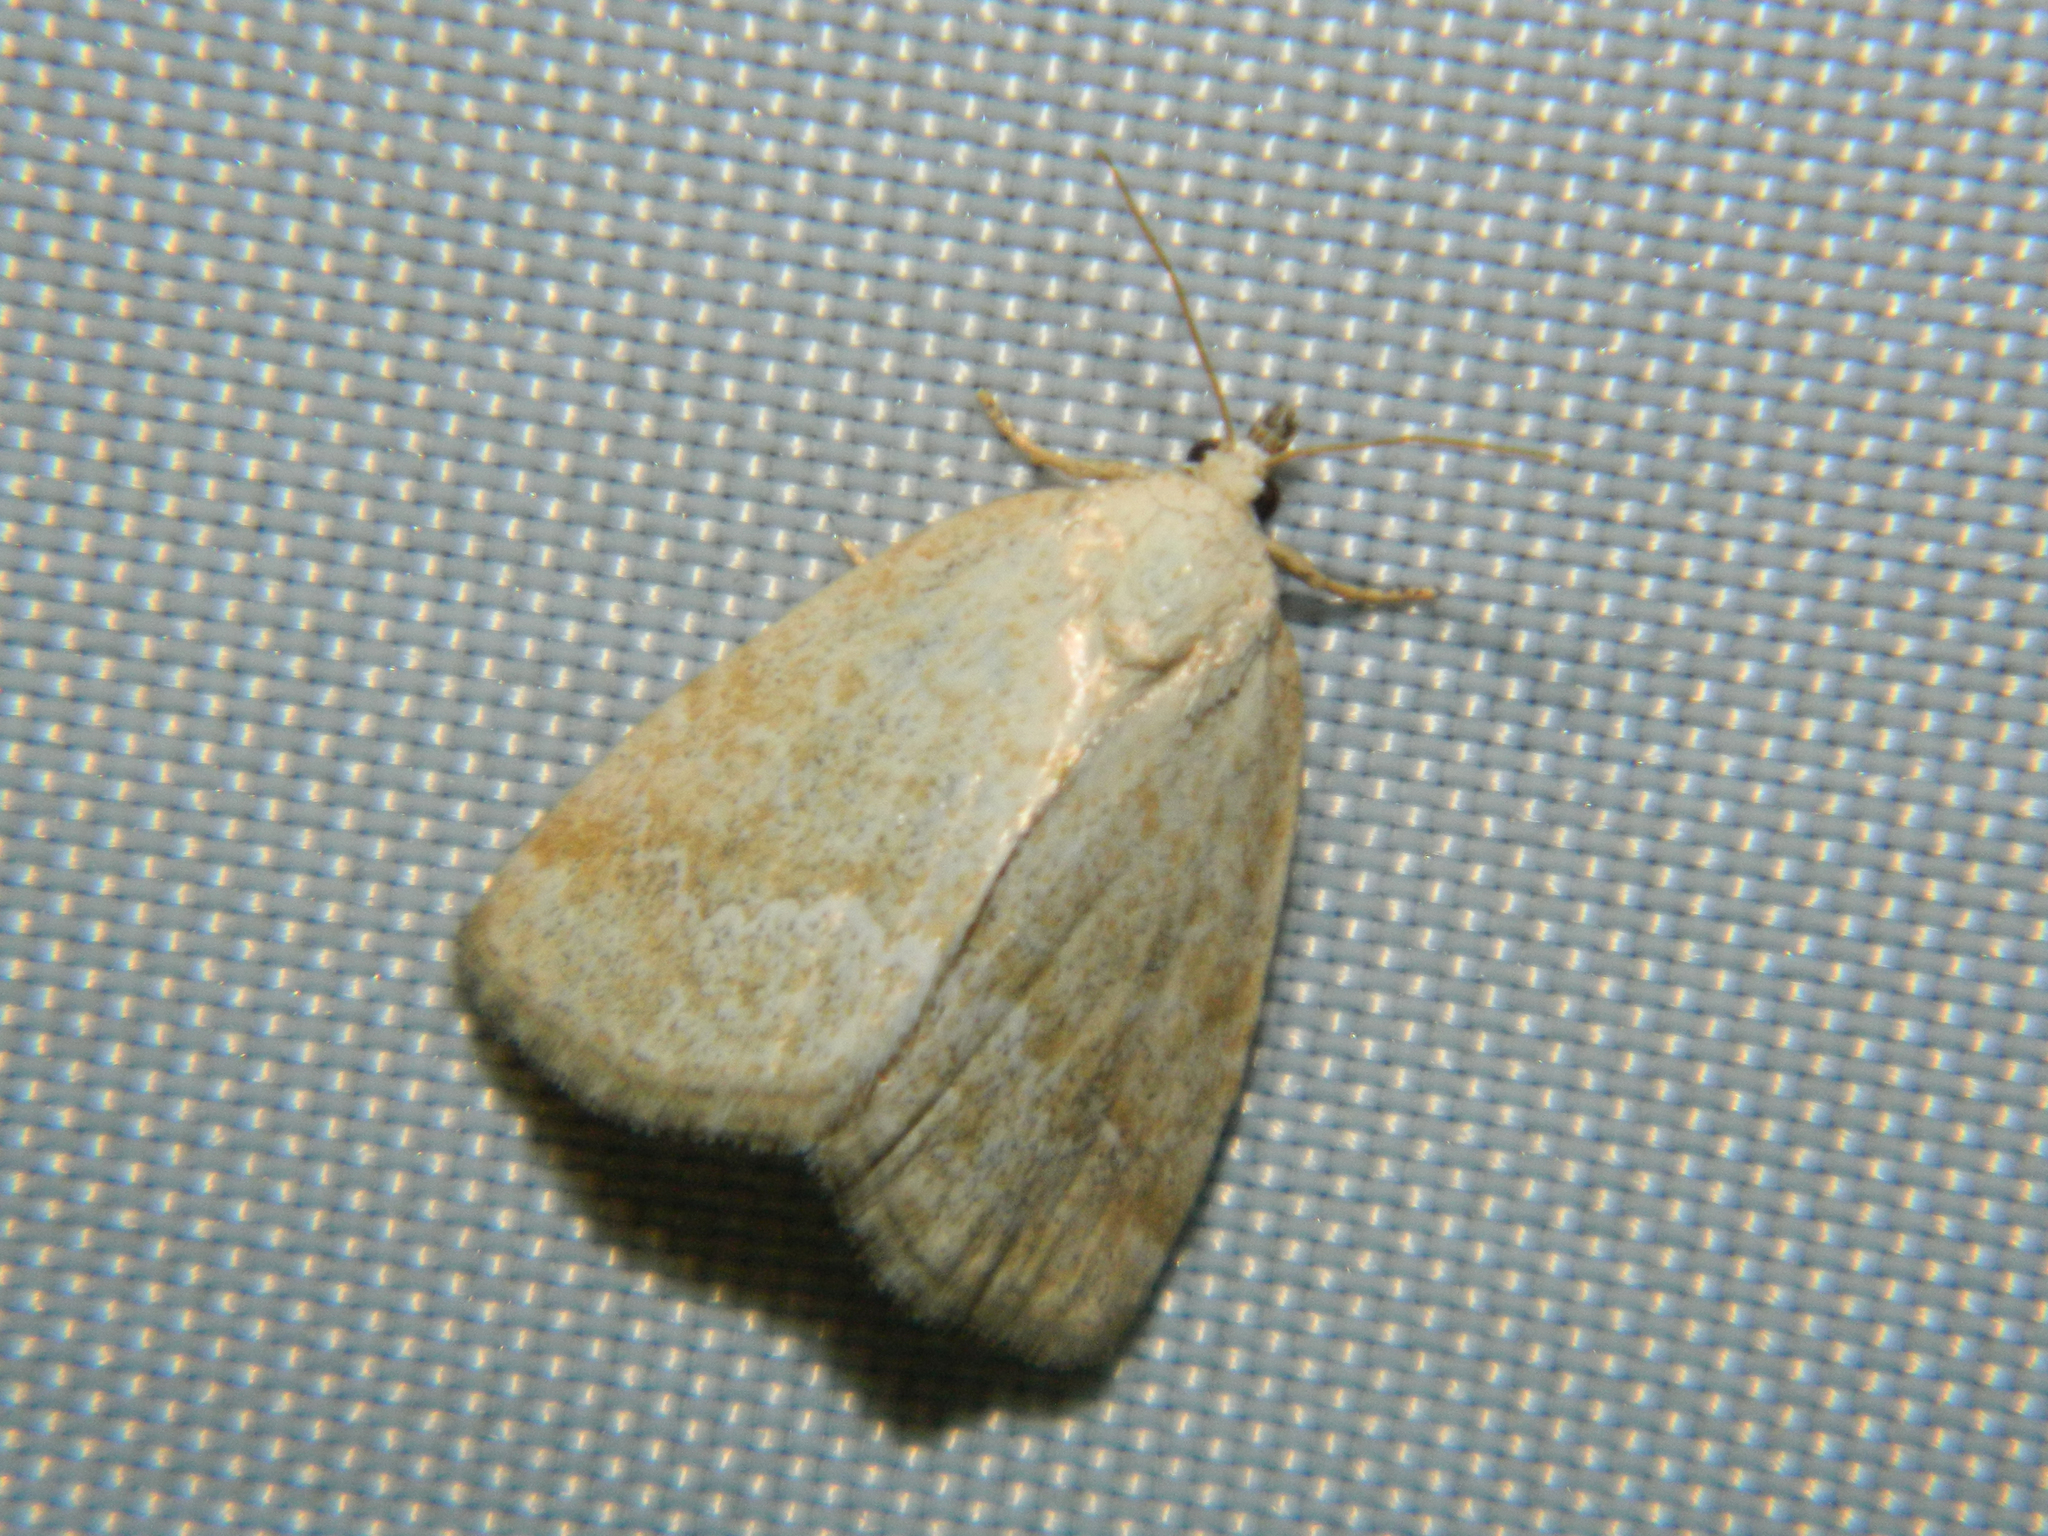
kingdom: Animalia
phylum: Arthropoda
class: Insecta
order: Lepidoptera
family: Noctuidae
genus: Protodeltote
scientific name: Protodeltote albidula
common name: Pale glyph
